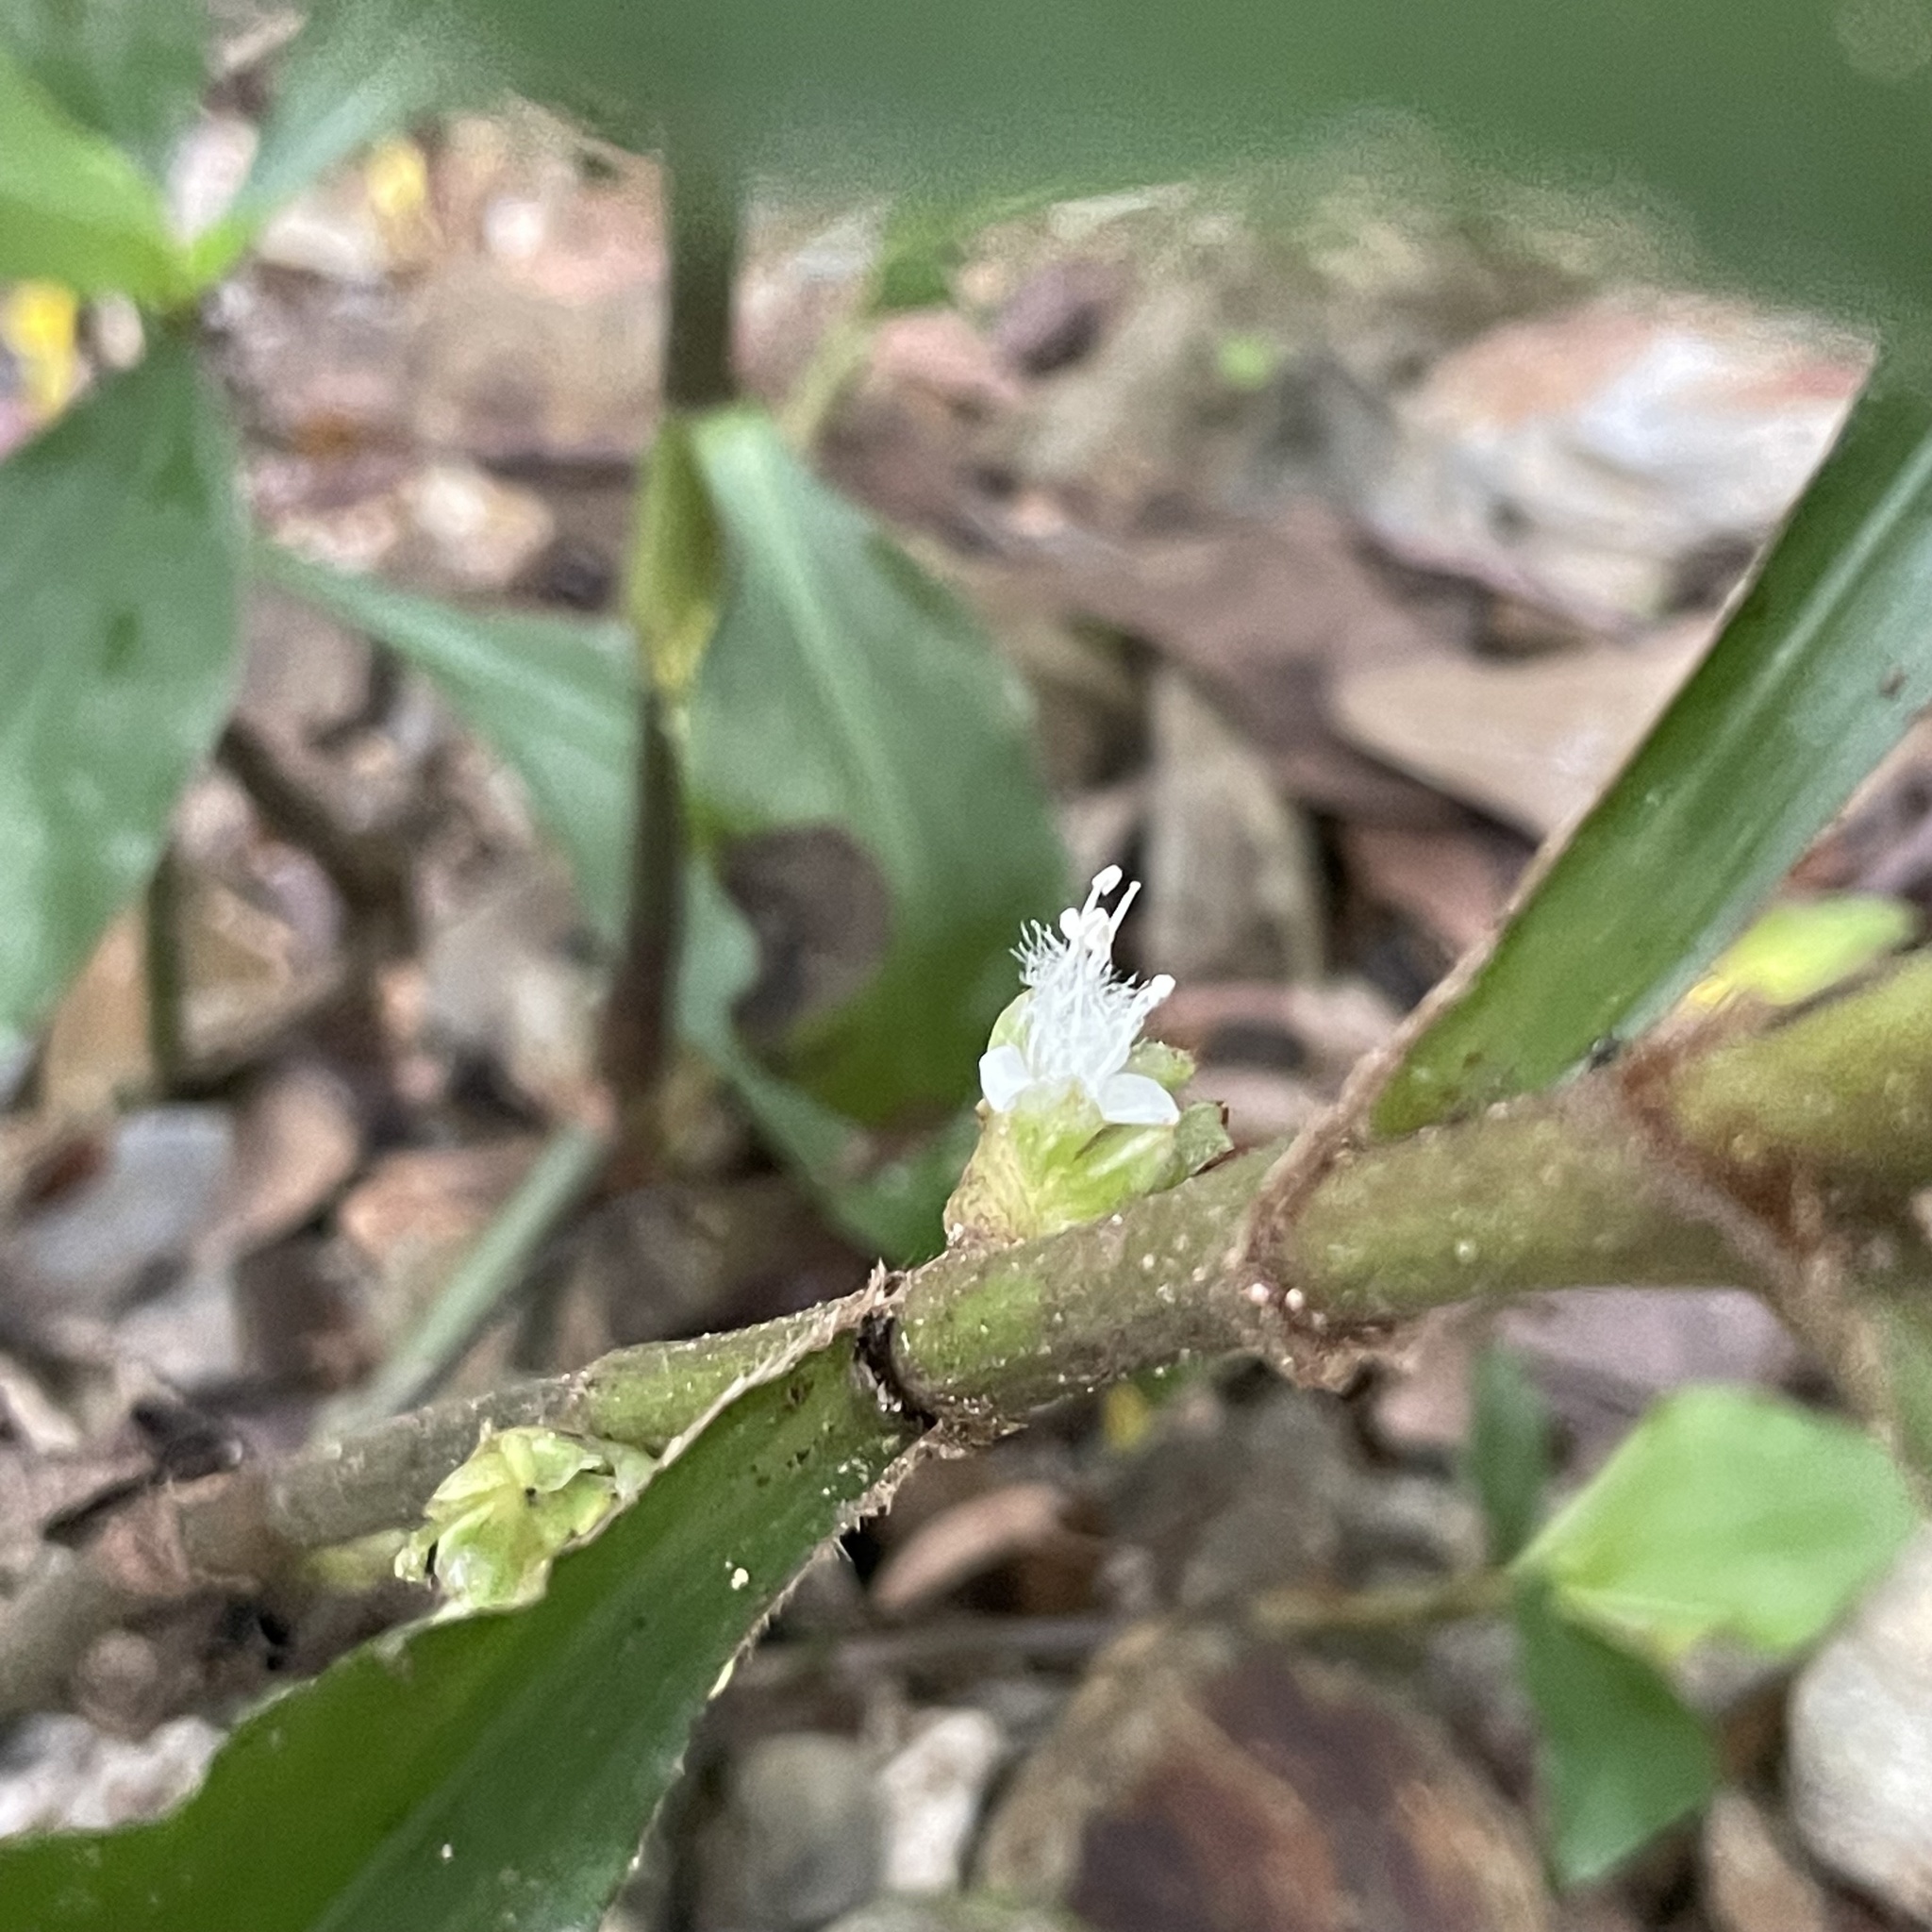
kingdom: Plantae
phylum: Tracheophyta
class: Liliopsida
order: Commelinales
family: Commelinaceae
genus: Amischotolype
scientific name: Amischotolype glabrata
